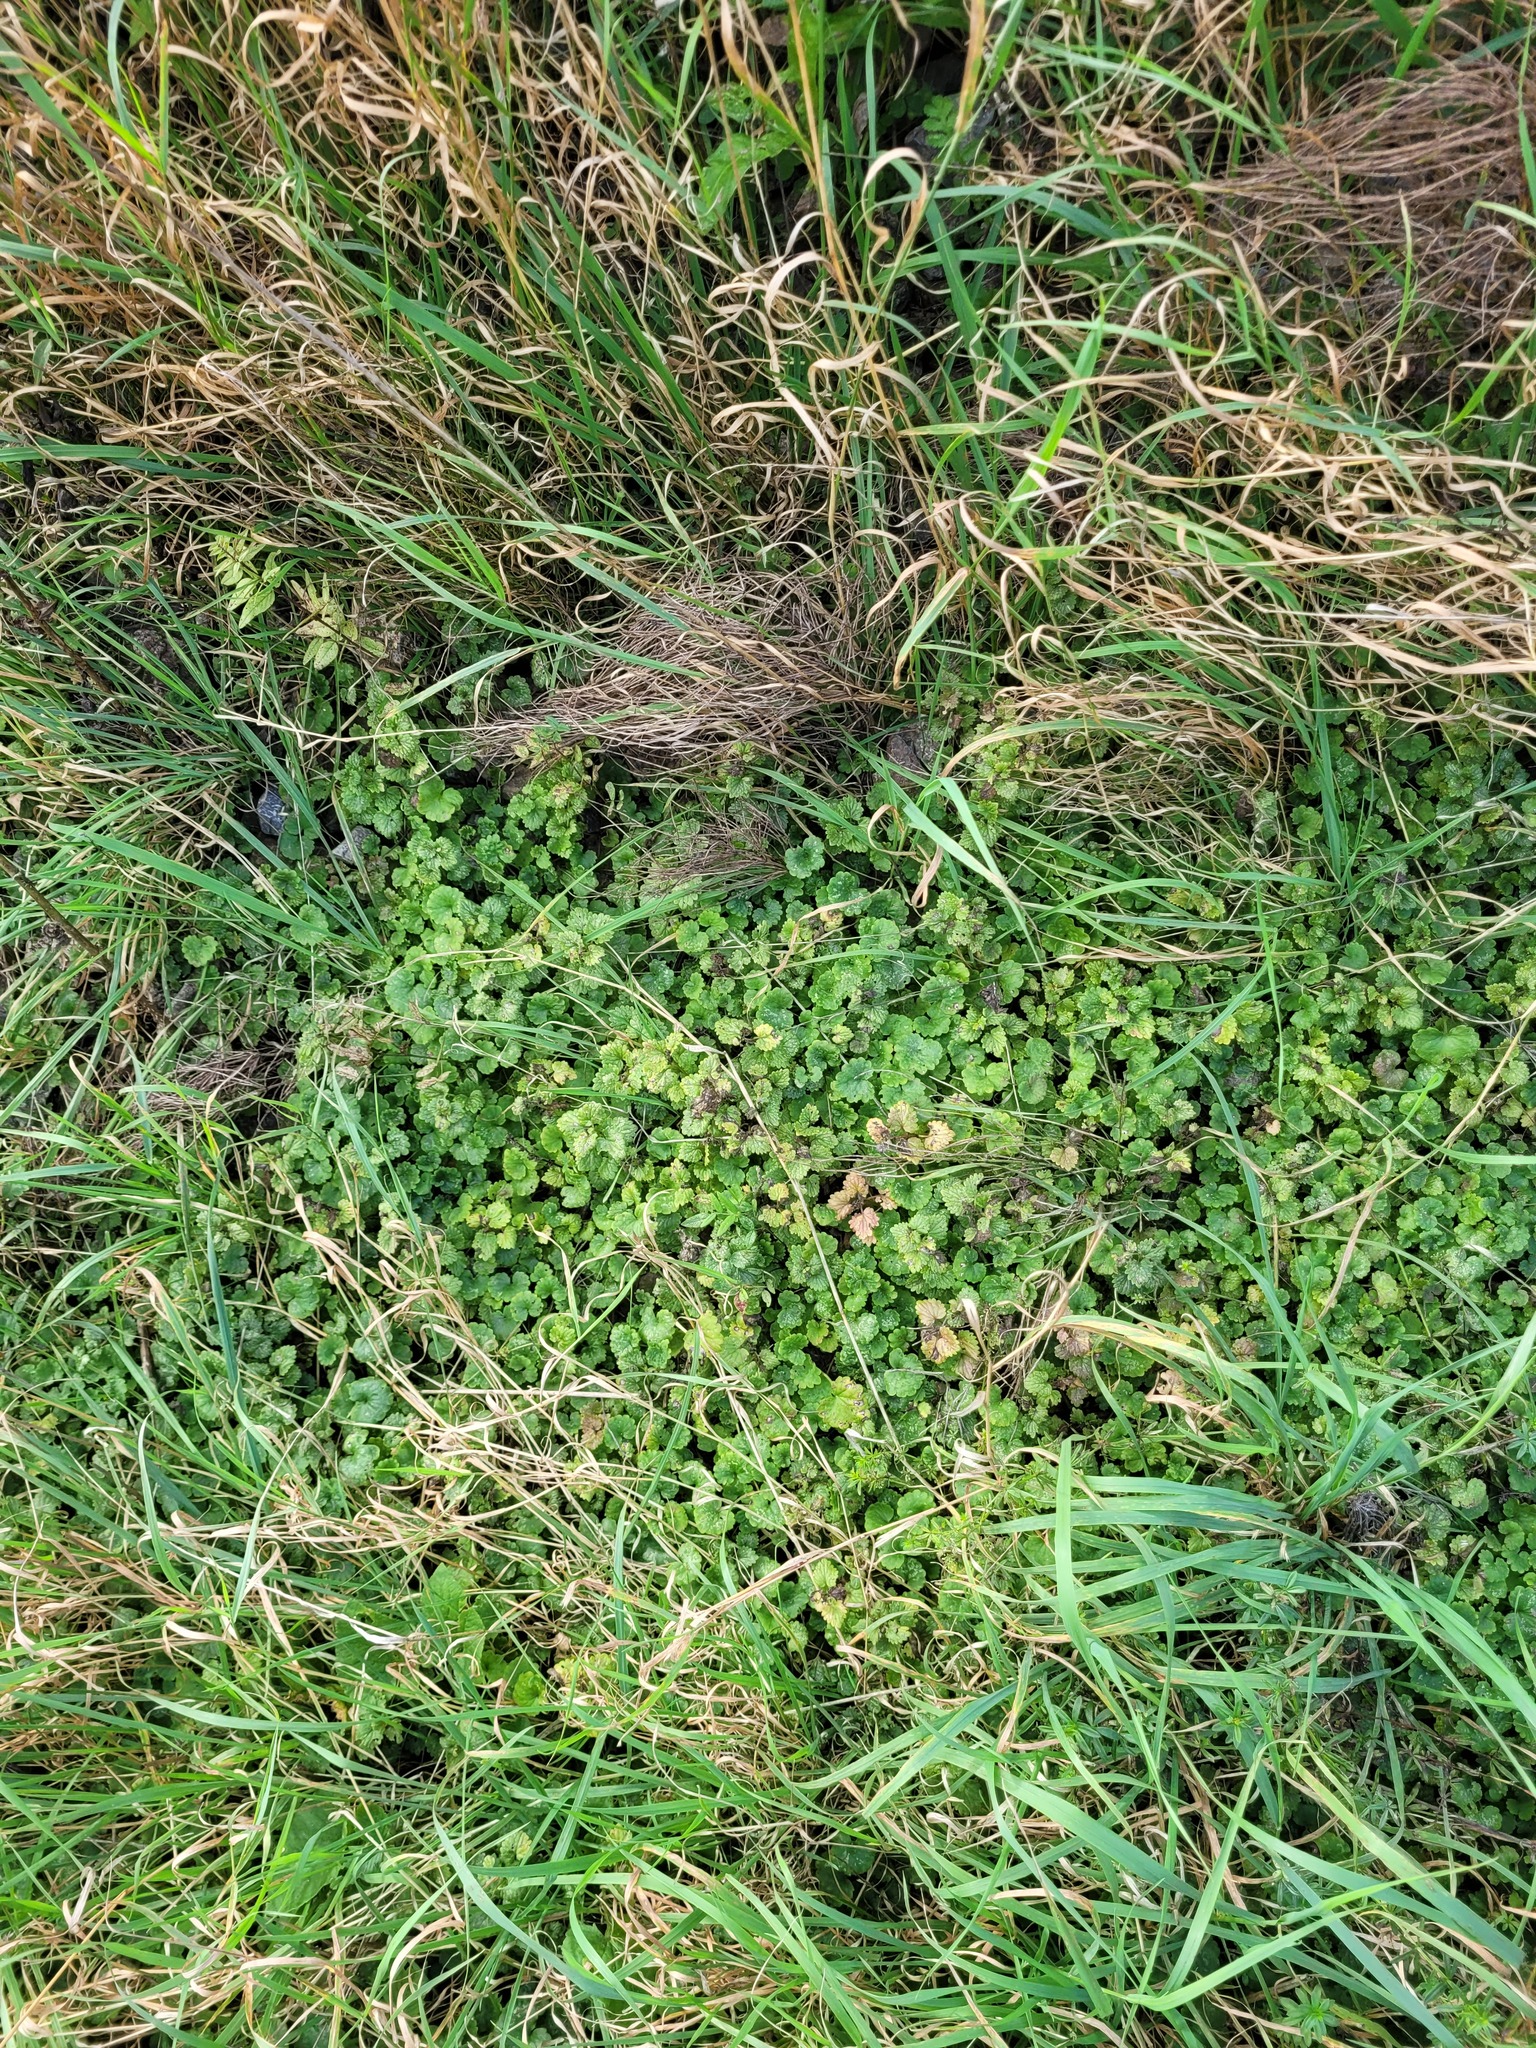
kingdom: Plantae
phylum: Tracheophyta
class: Magnoliopsida
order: Lamiales
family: Lamiaceae
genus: Glechoma
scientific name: Glechoma hederacea
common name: Ground ivy
